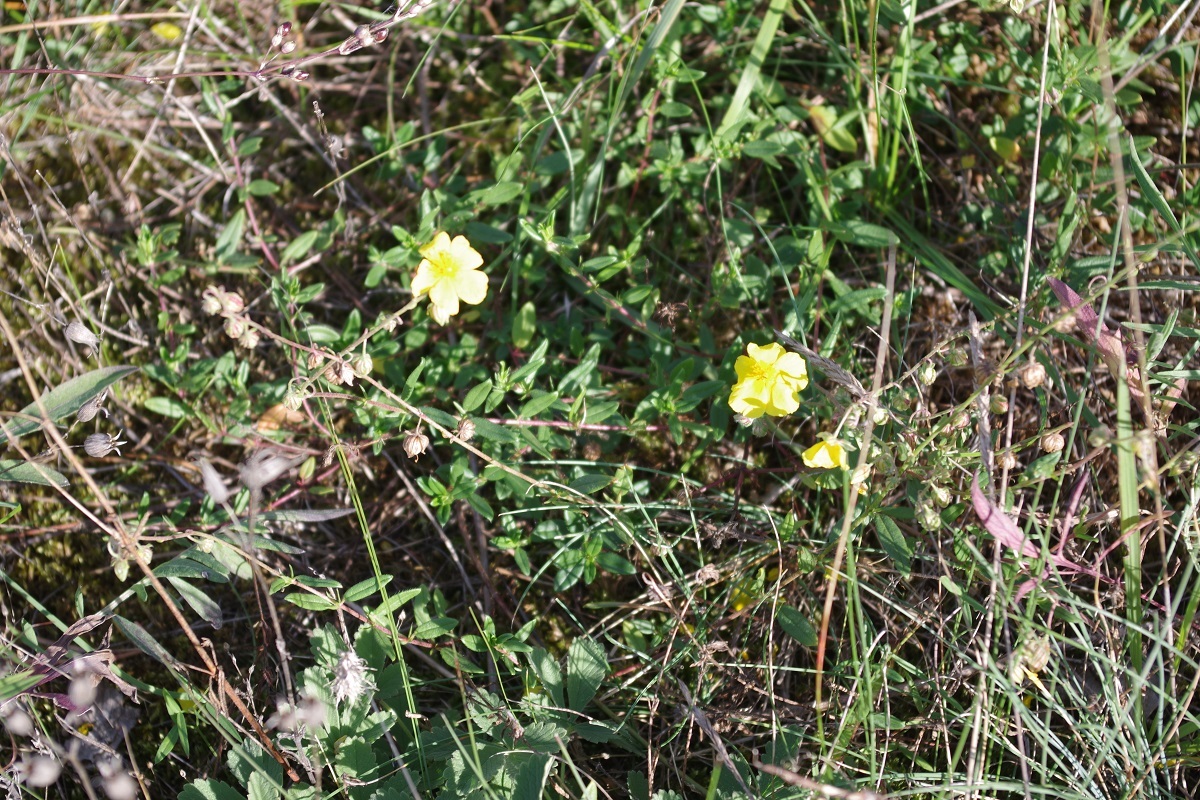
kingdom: Plantae
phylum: Tracheophyta
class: Magnoliopsida
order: Malvales
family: Cistaceae
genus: Helianthemum
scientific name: Helianthemum nummularium
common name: Common rock-rose
